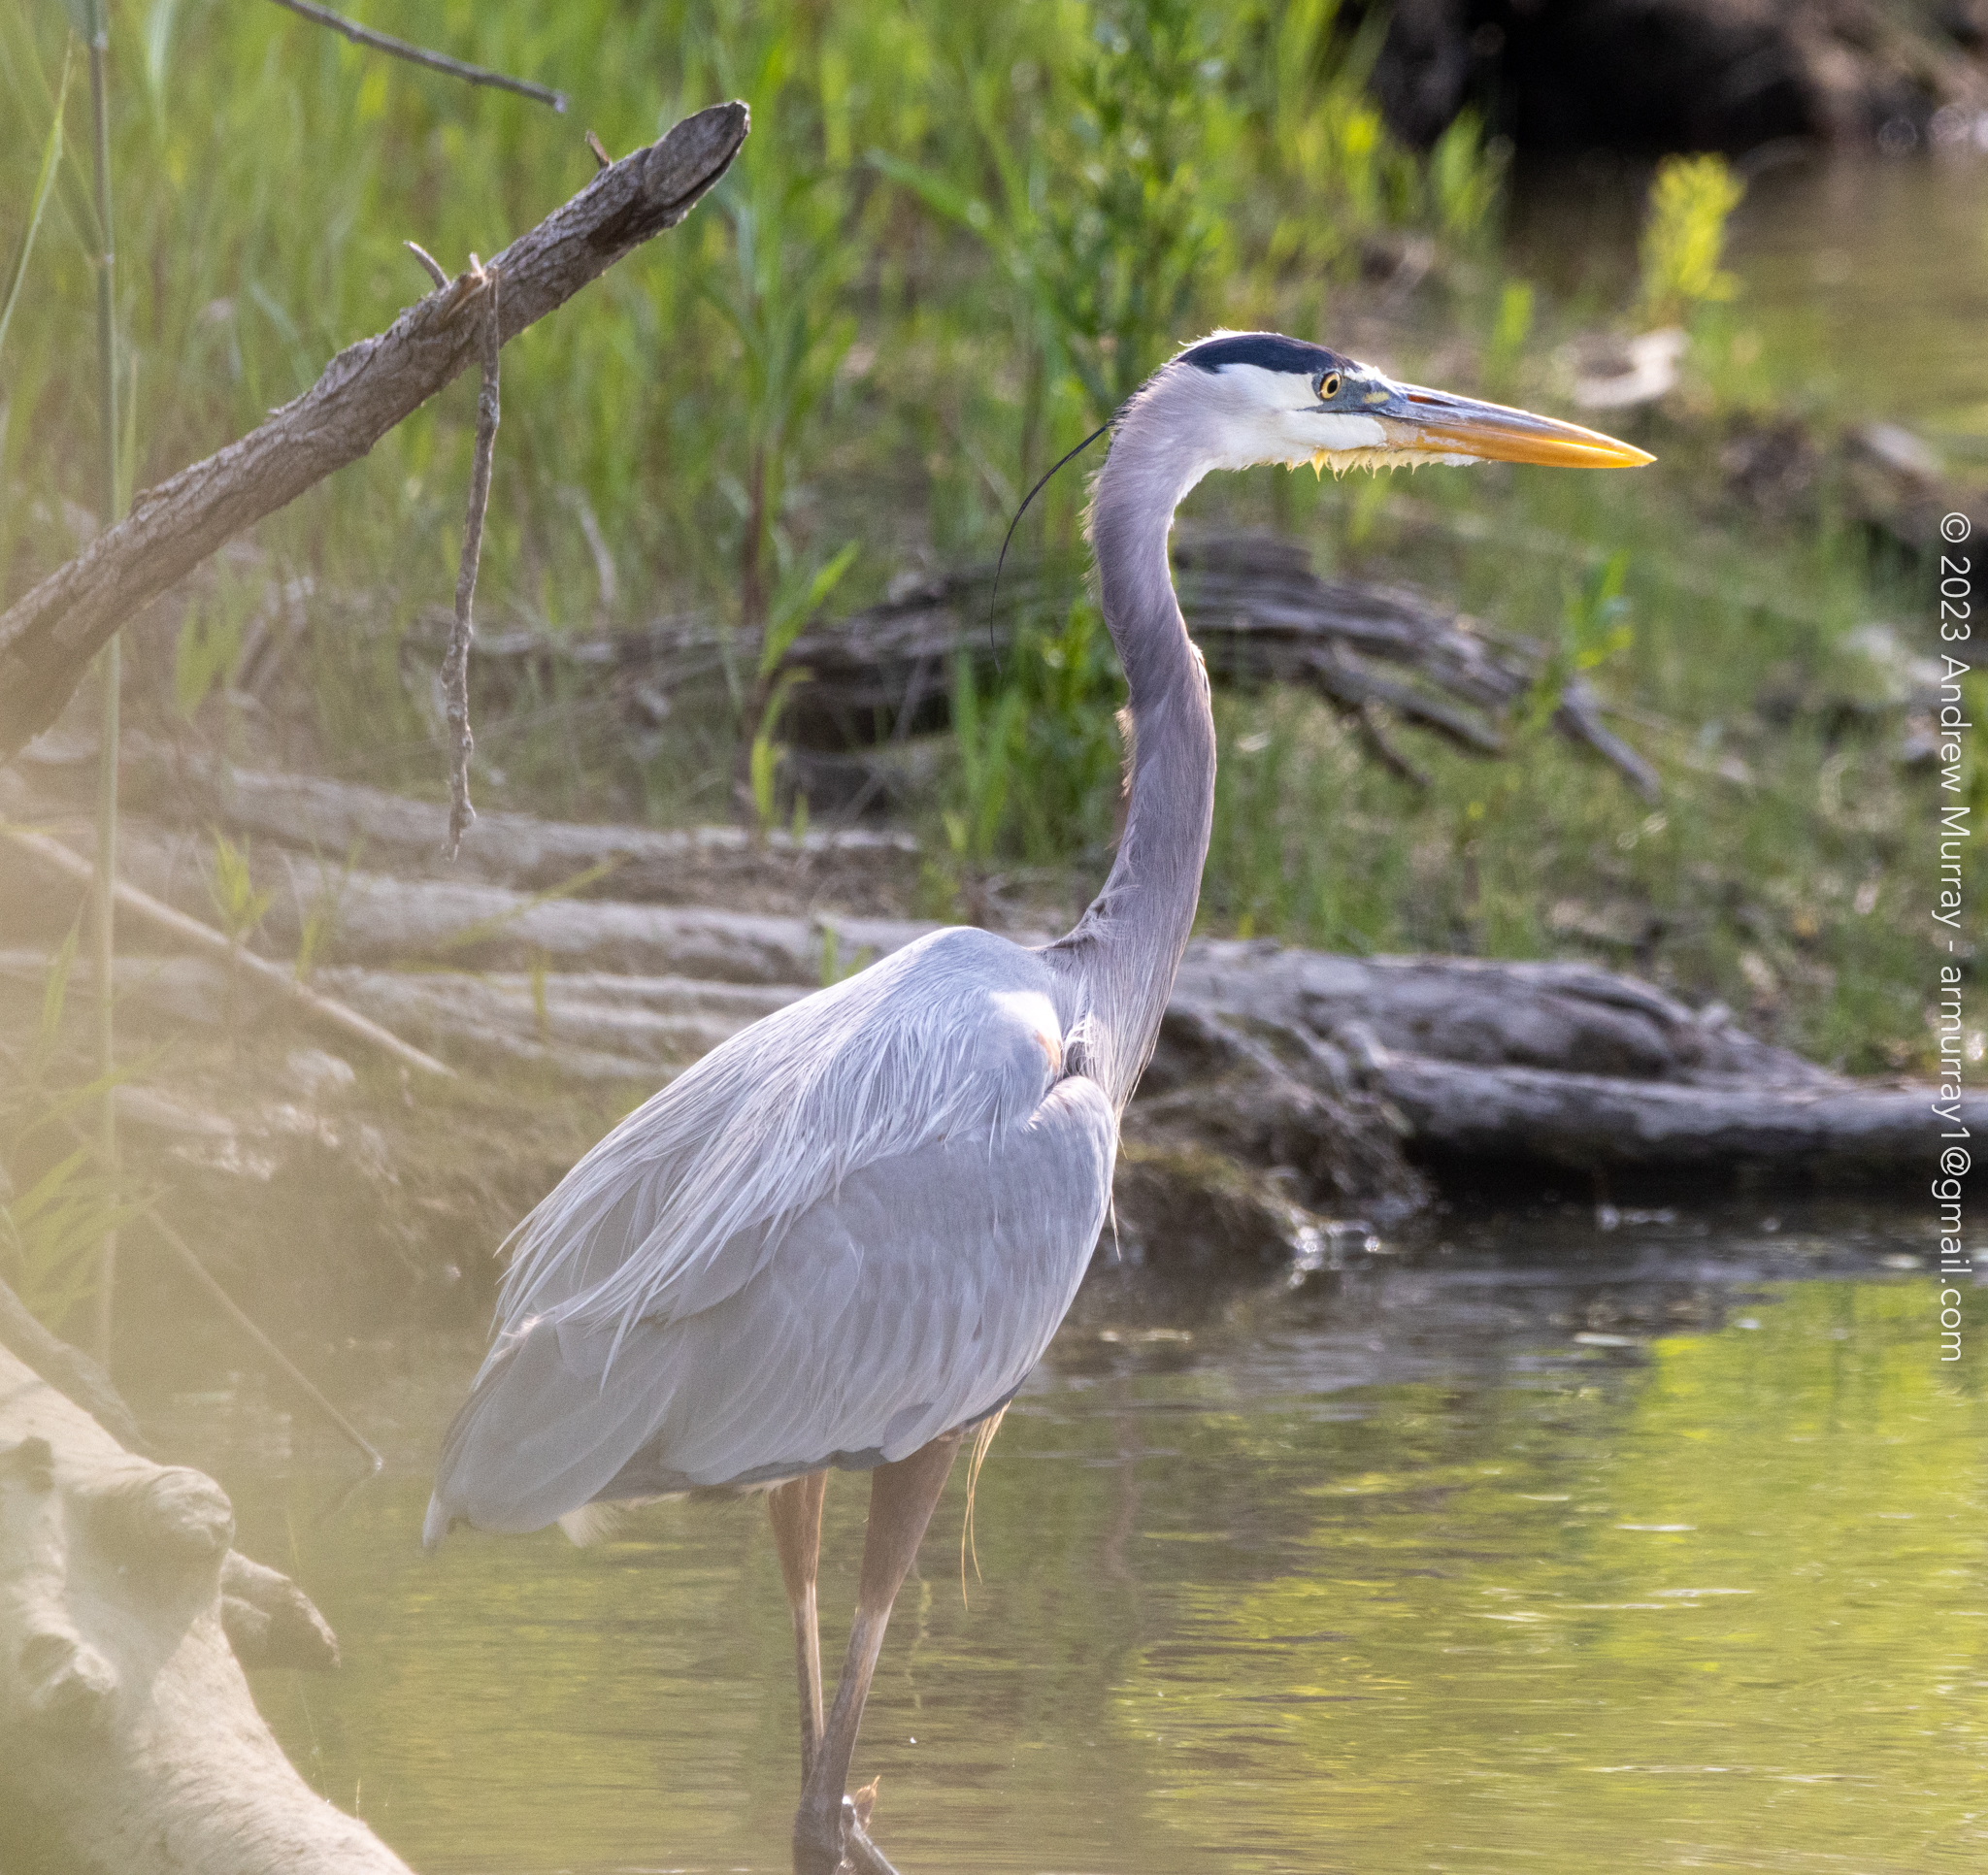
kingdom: Animalia
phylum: Chordata
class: Aves
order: Pelecaniformes
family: Ardeidae
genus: Ardea
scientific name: Ardea herodias
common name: Great blue heron
